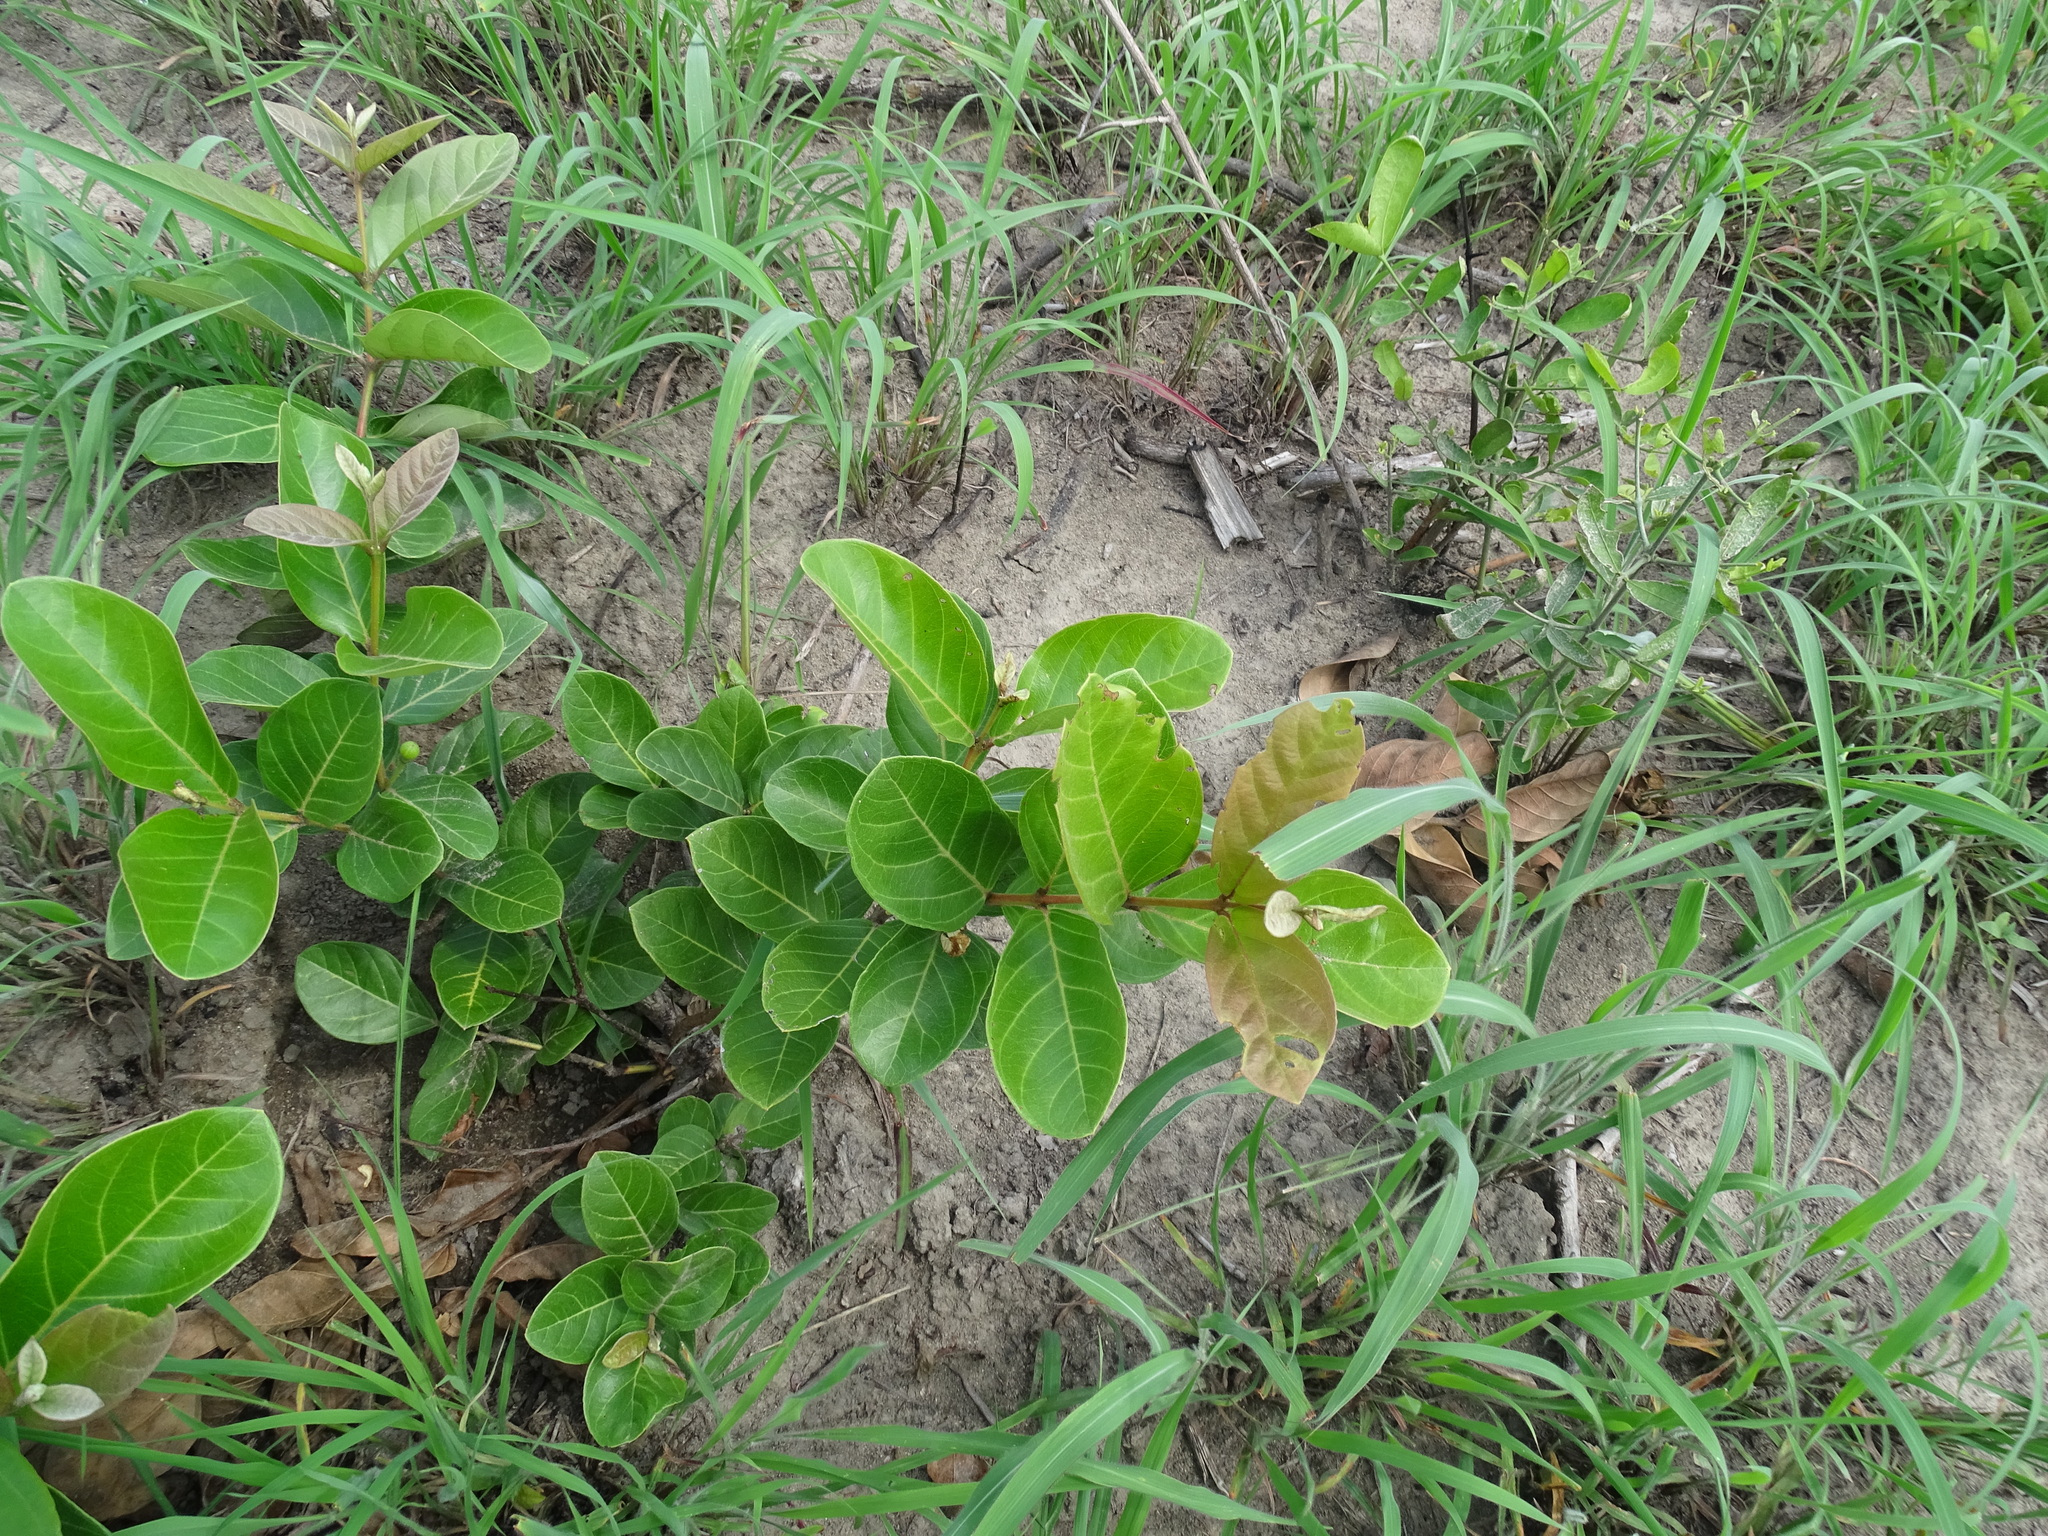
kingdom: Plantae
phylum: Tracheophyta
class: Magnoliopsida
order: Myrtales
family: Myrtaceae
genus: Psidium
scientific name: Psidium guineense
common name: Brazilian guava
